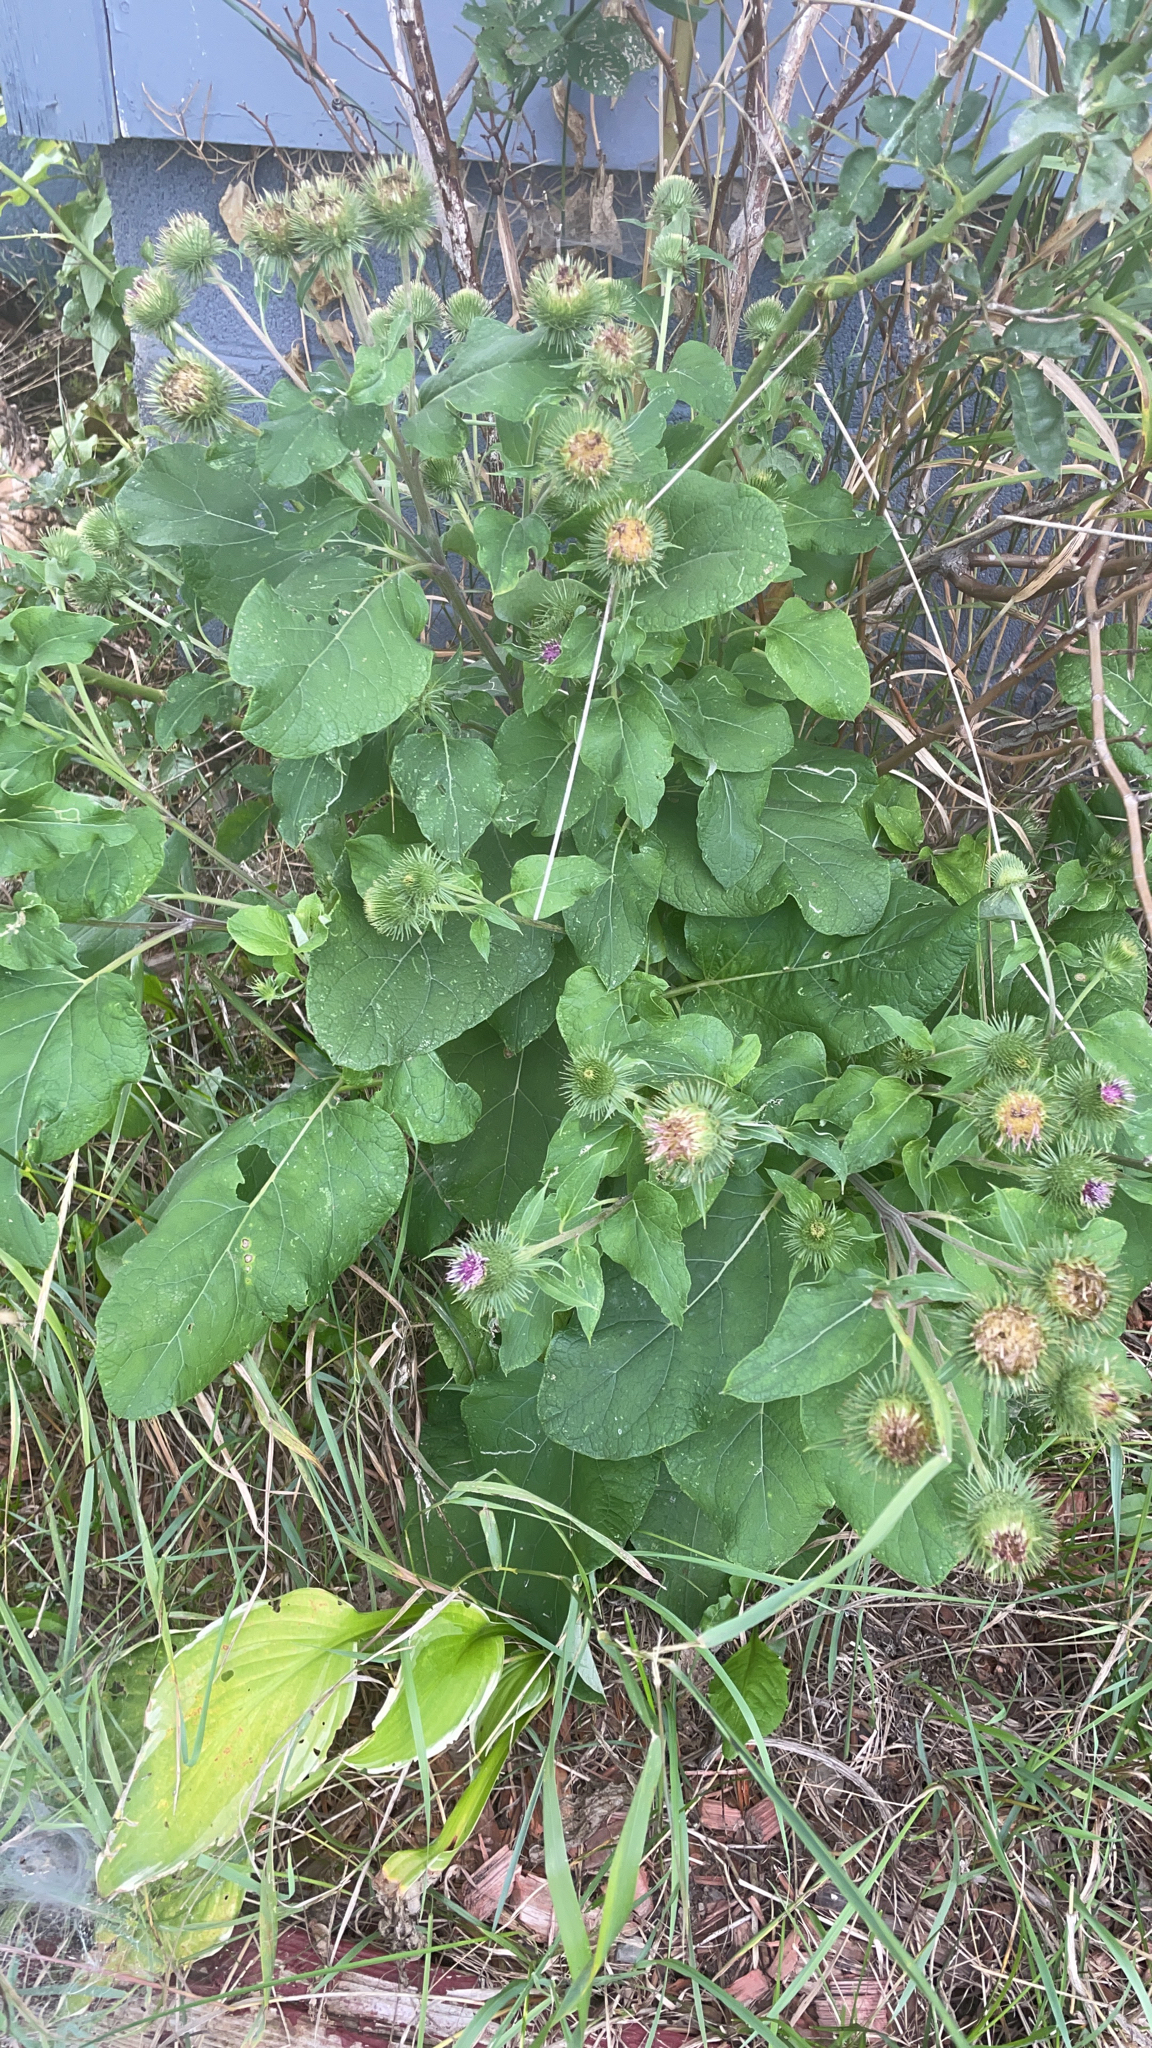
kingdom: Plantae
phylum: Tracheophyta
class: Magnoliopsida
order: Asterales
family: Asteraceae
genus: Arctium
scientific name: Arctium lappa
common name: Greater burdock
